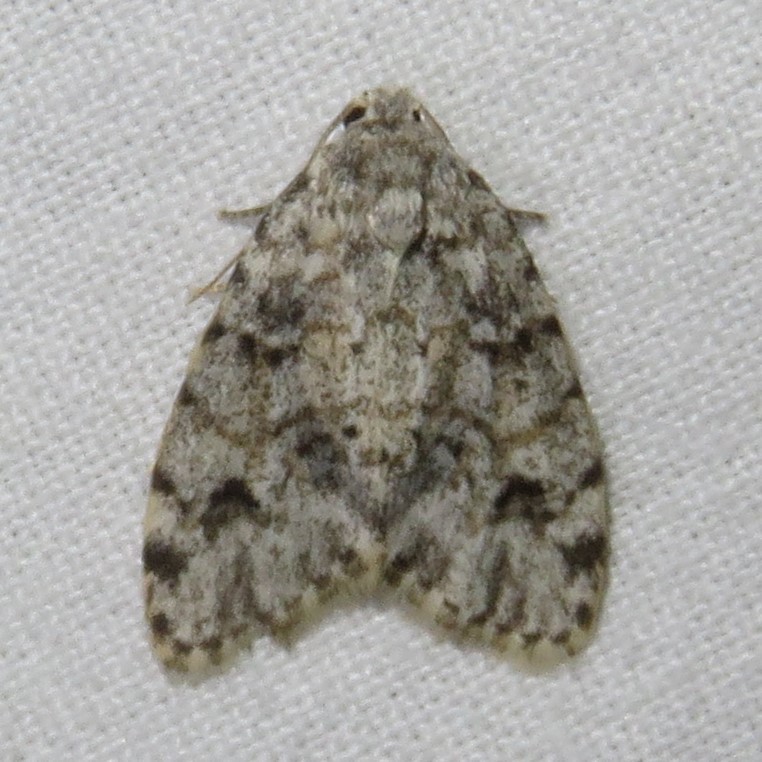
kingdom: Animalia
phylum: Arthropoda
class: Insecta
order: Lepidoptera
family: Erebidae
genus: Clemensia
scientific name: Clemensia albata
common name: Little white lichen moth
